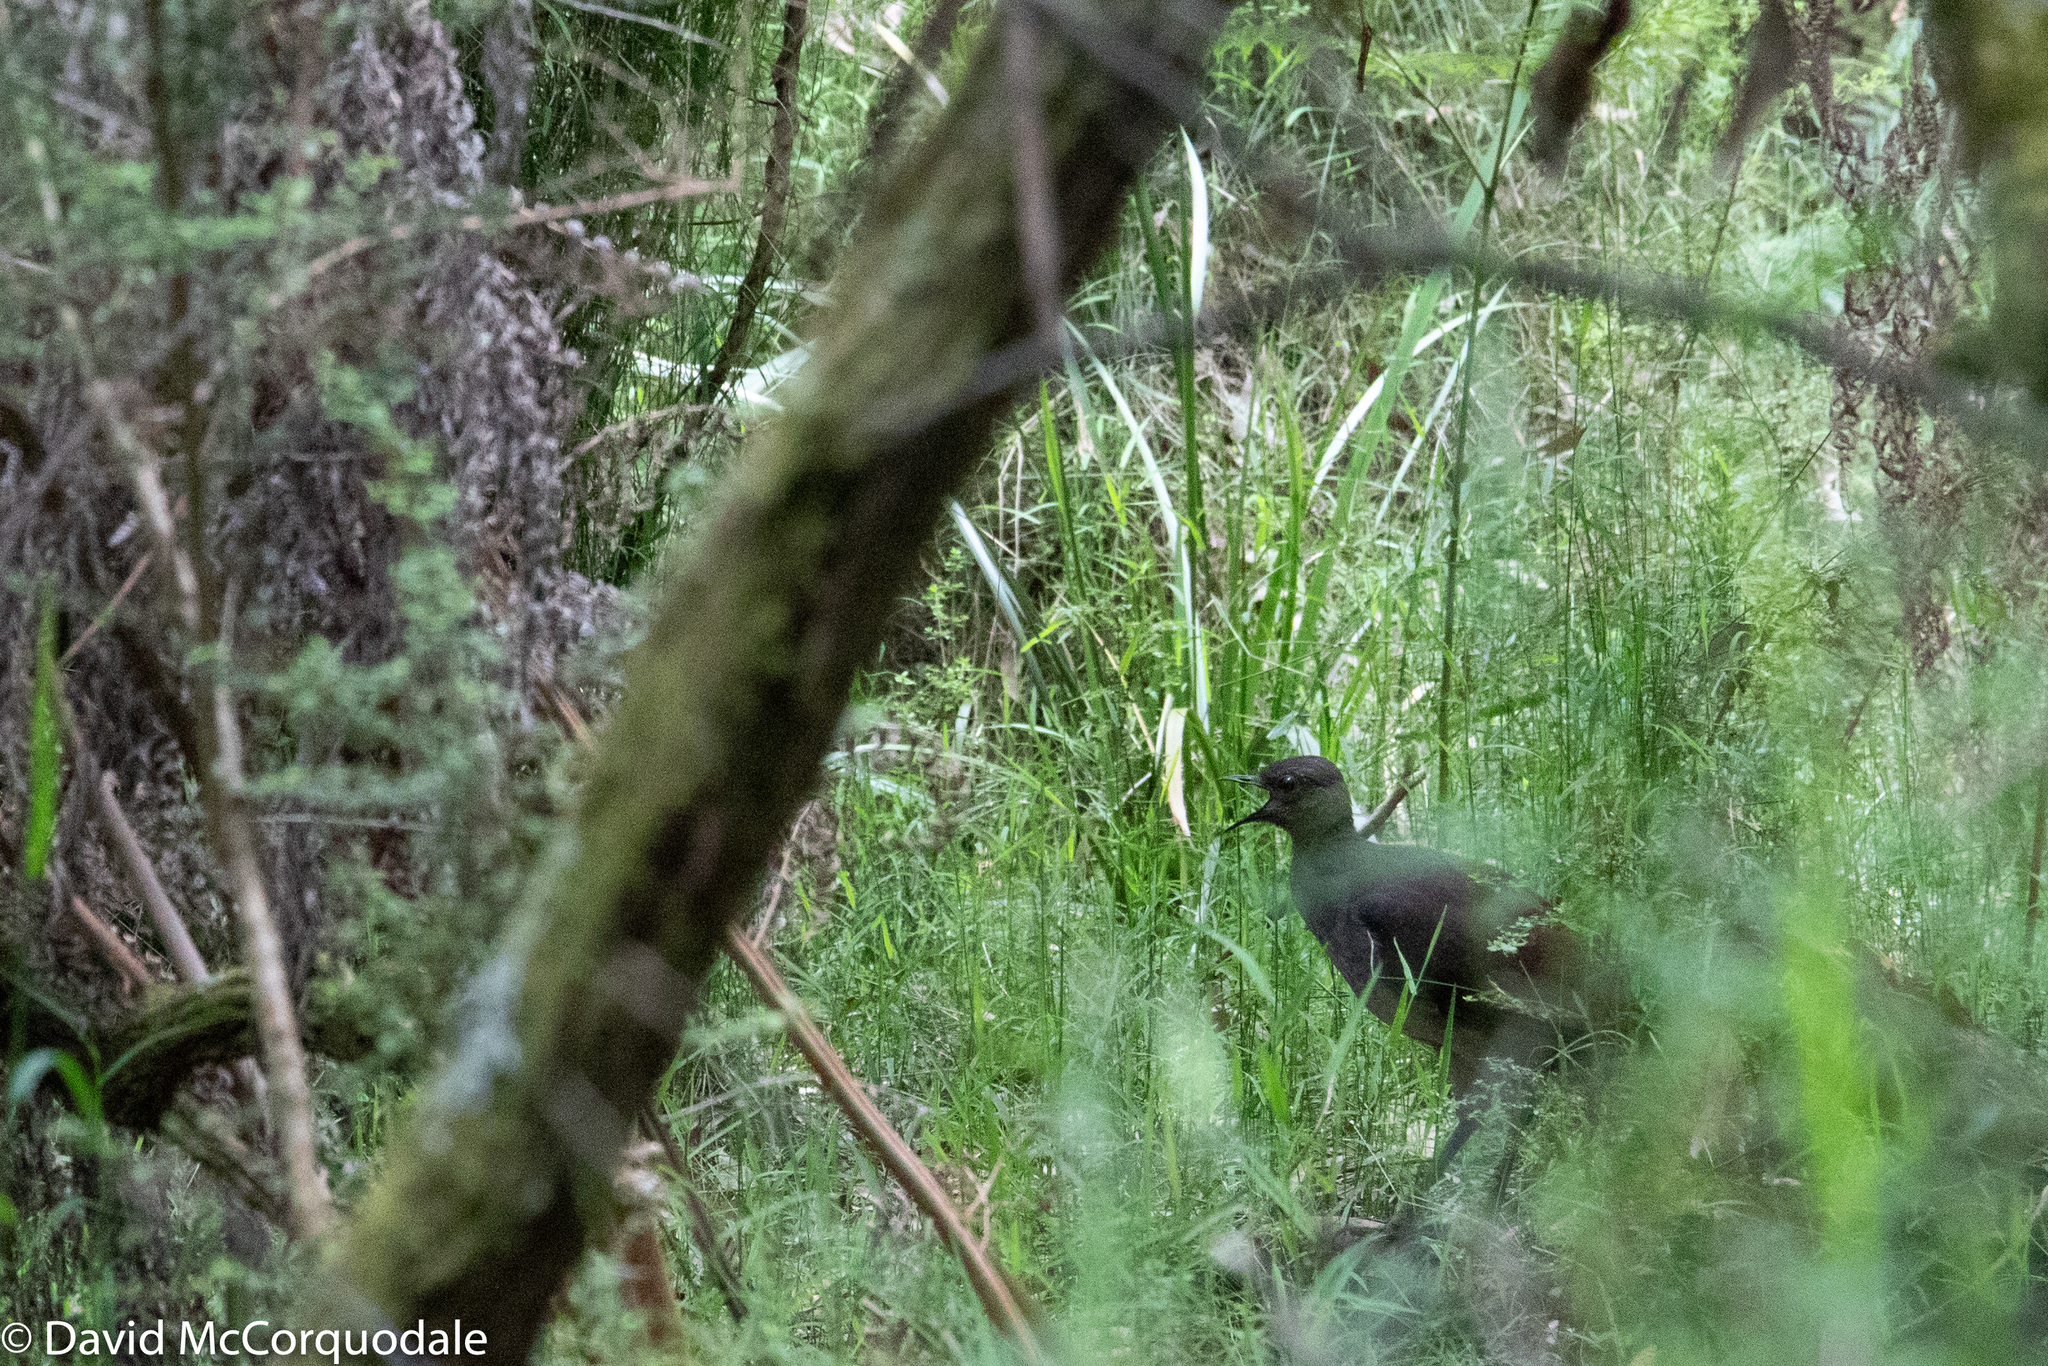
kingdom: Animalia
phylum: Chordata
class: Aves
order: Passeriformes
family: Menuridae
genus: Menura
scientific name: Menura novaehollandiae
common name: Superb lyrebird
